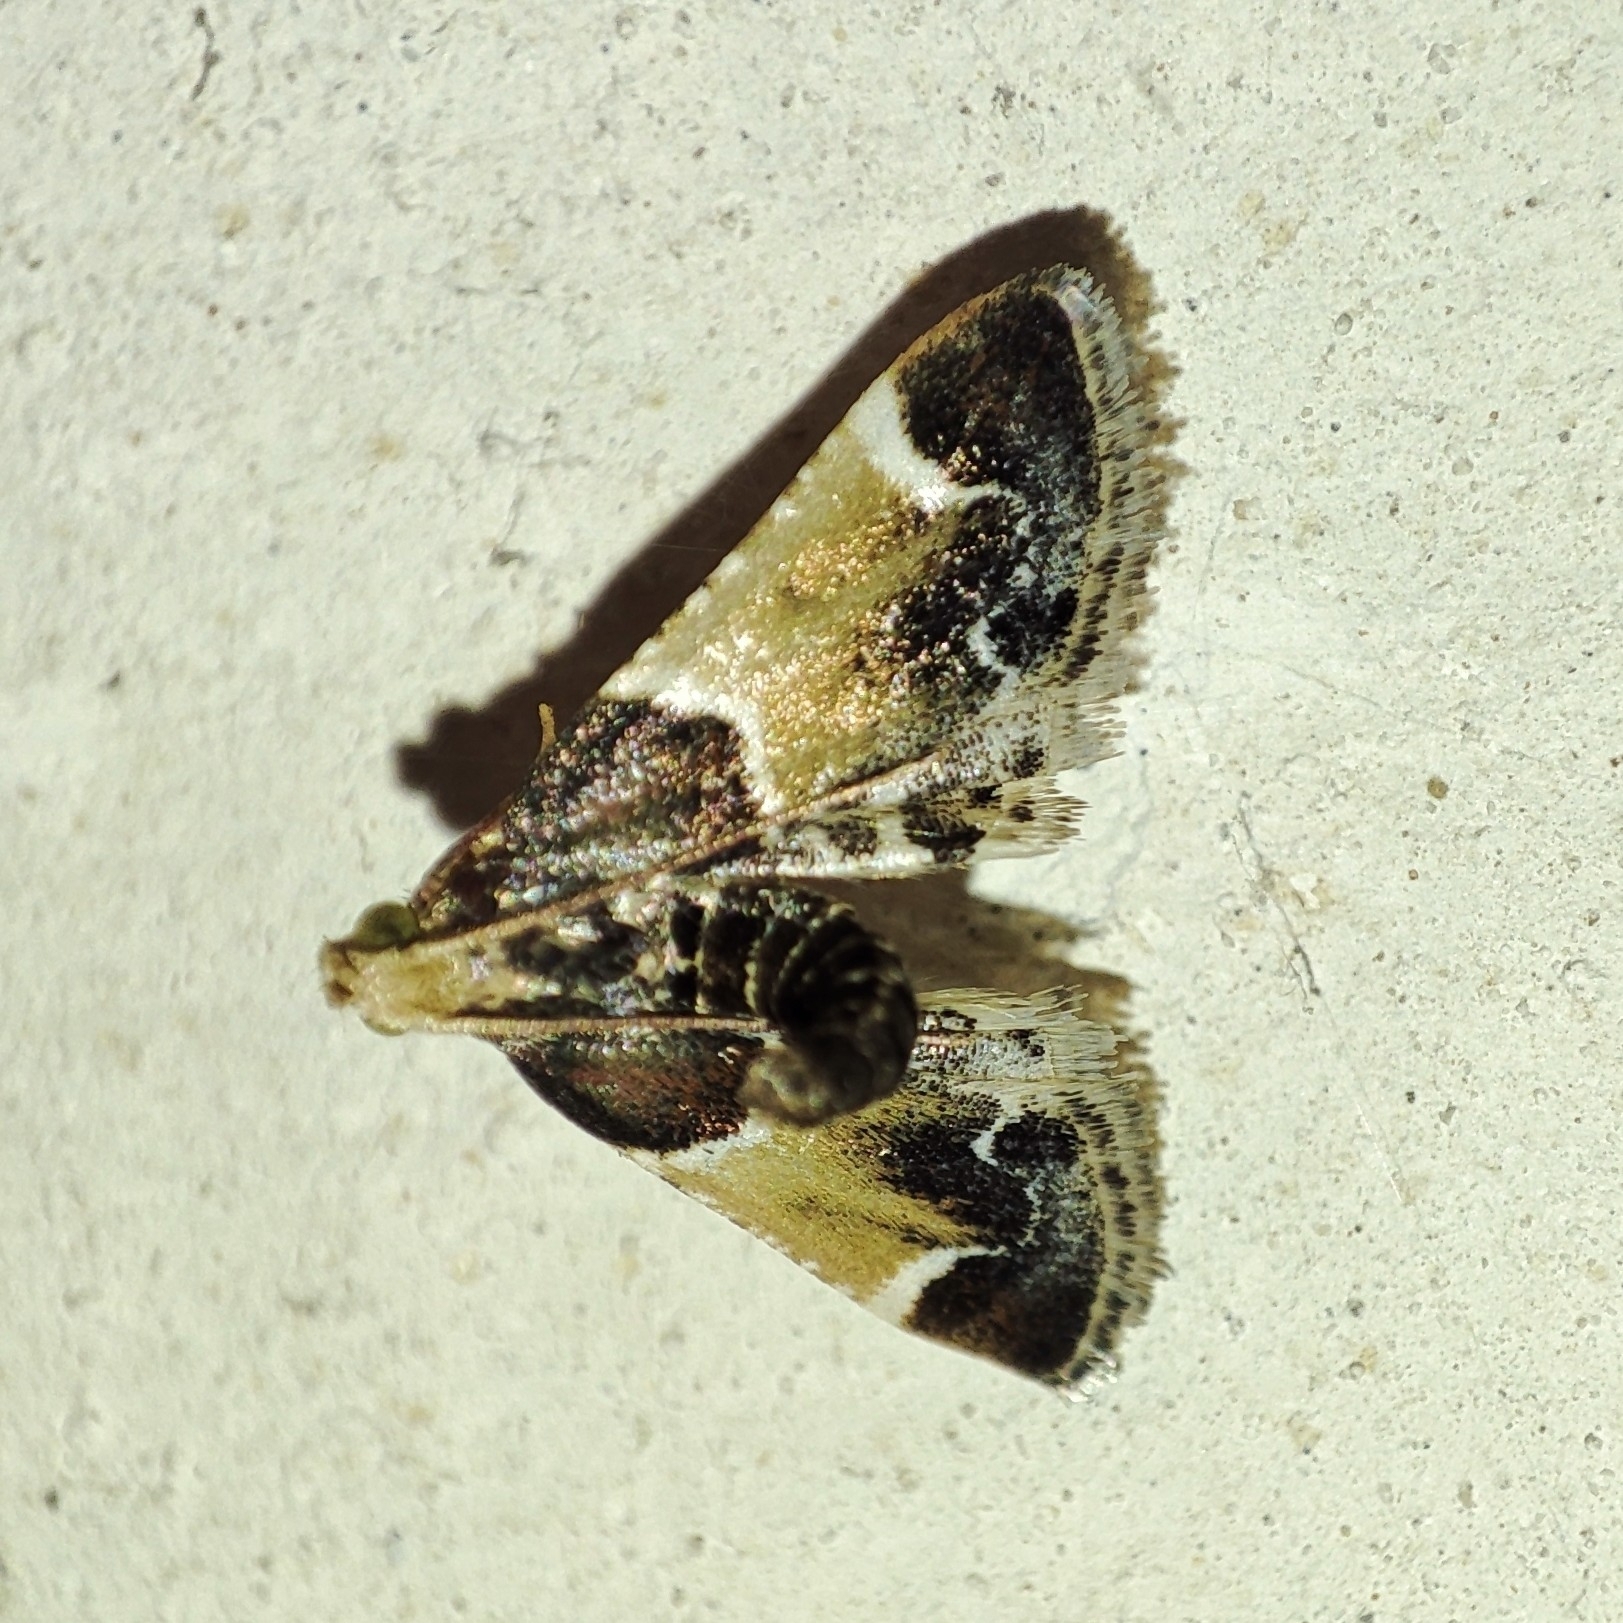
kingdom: Animalia
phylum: Arthropoda
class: Insecta
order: Lepidoptera
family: Pyralidae
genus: Pyralis
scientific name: Pyralis farinalis
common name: Meal moth
